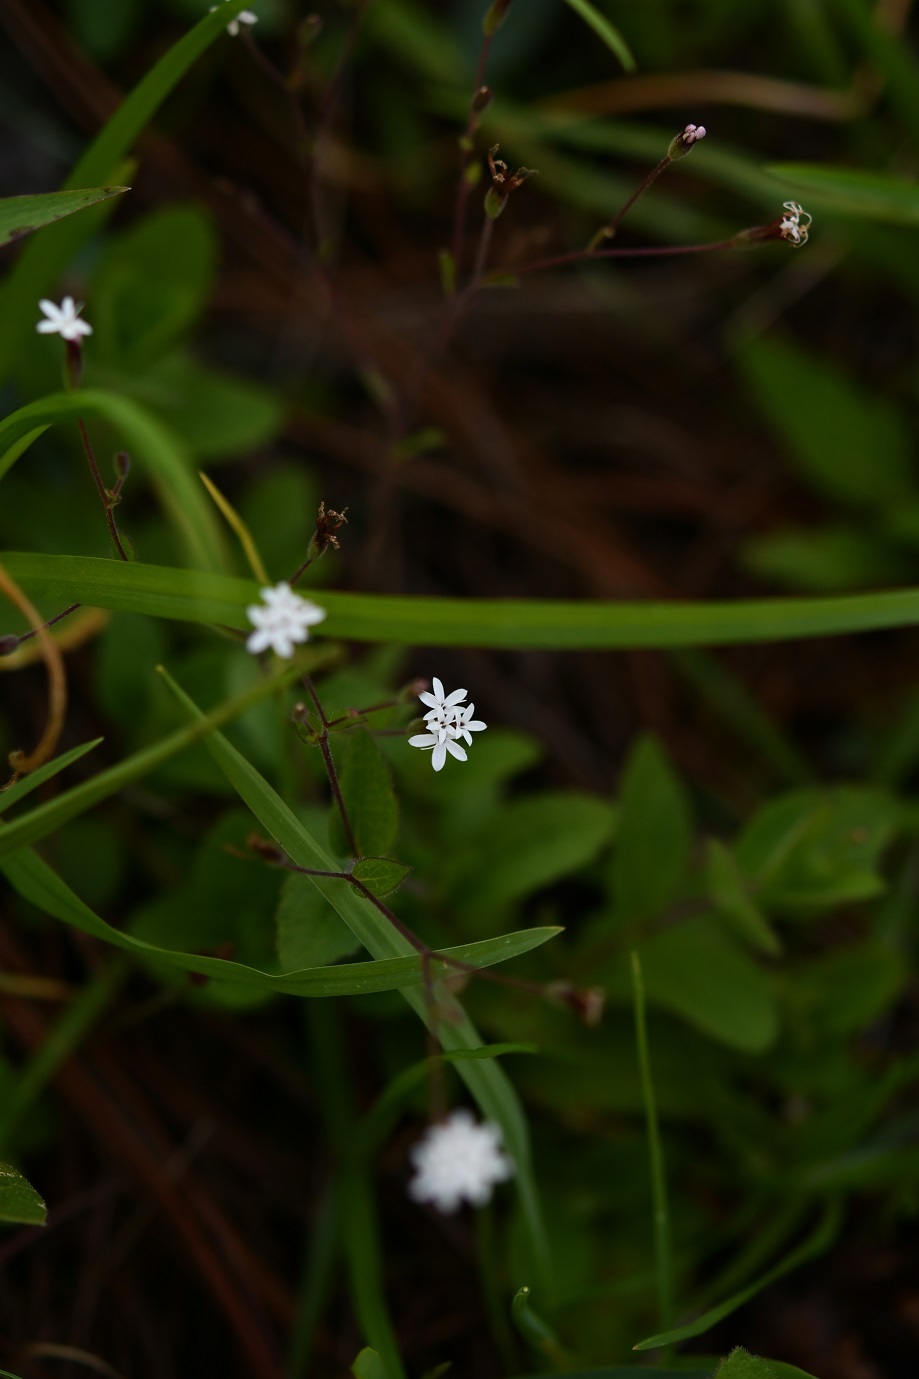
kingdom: Plantae
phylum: Tracheophyta
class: Magnoliopsida
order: Asterales
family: Asteraceae
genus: Stevia
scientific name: Stevia elatior
